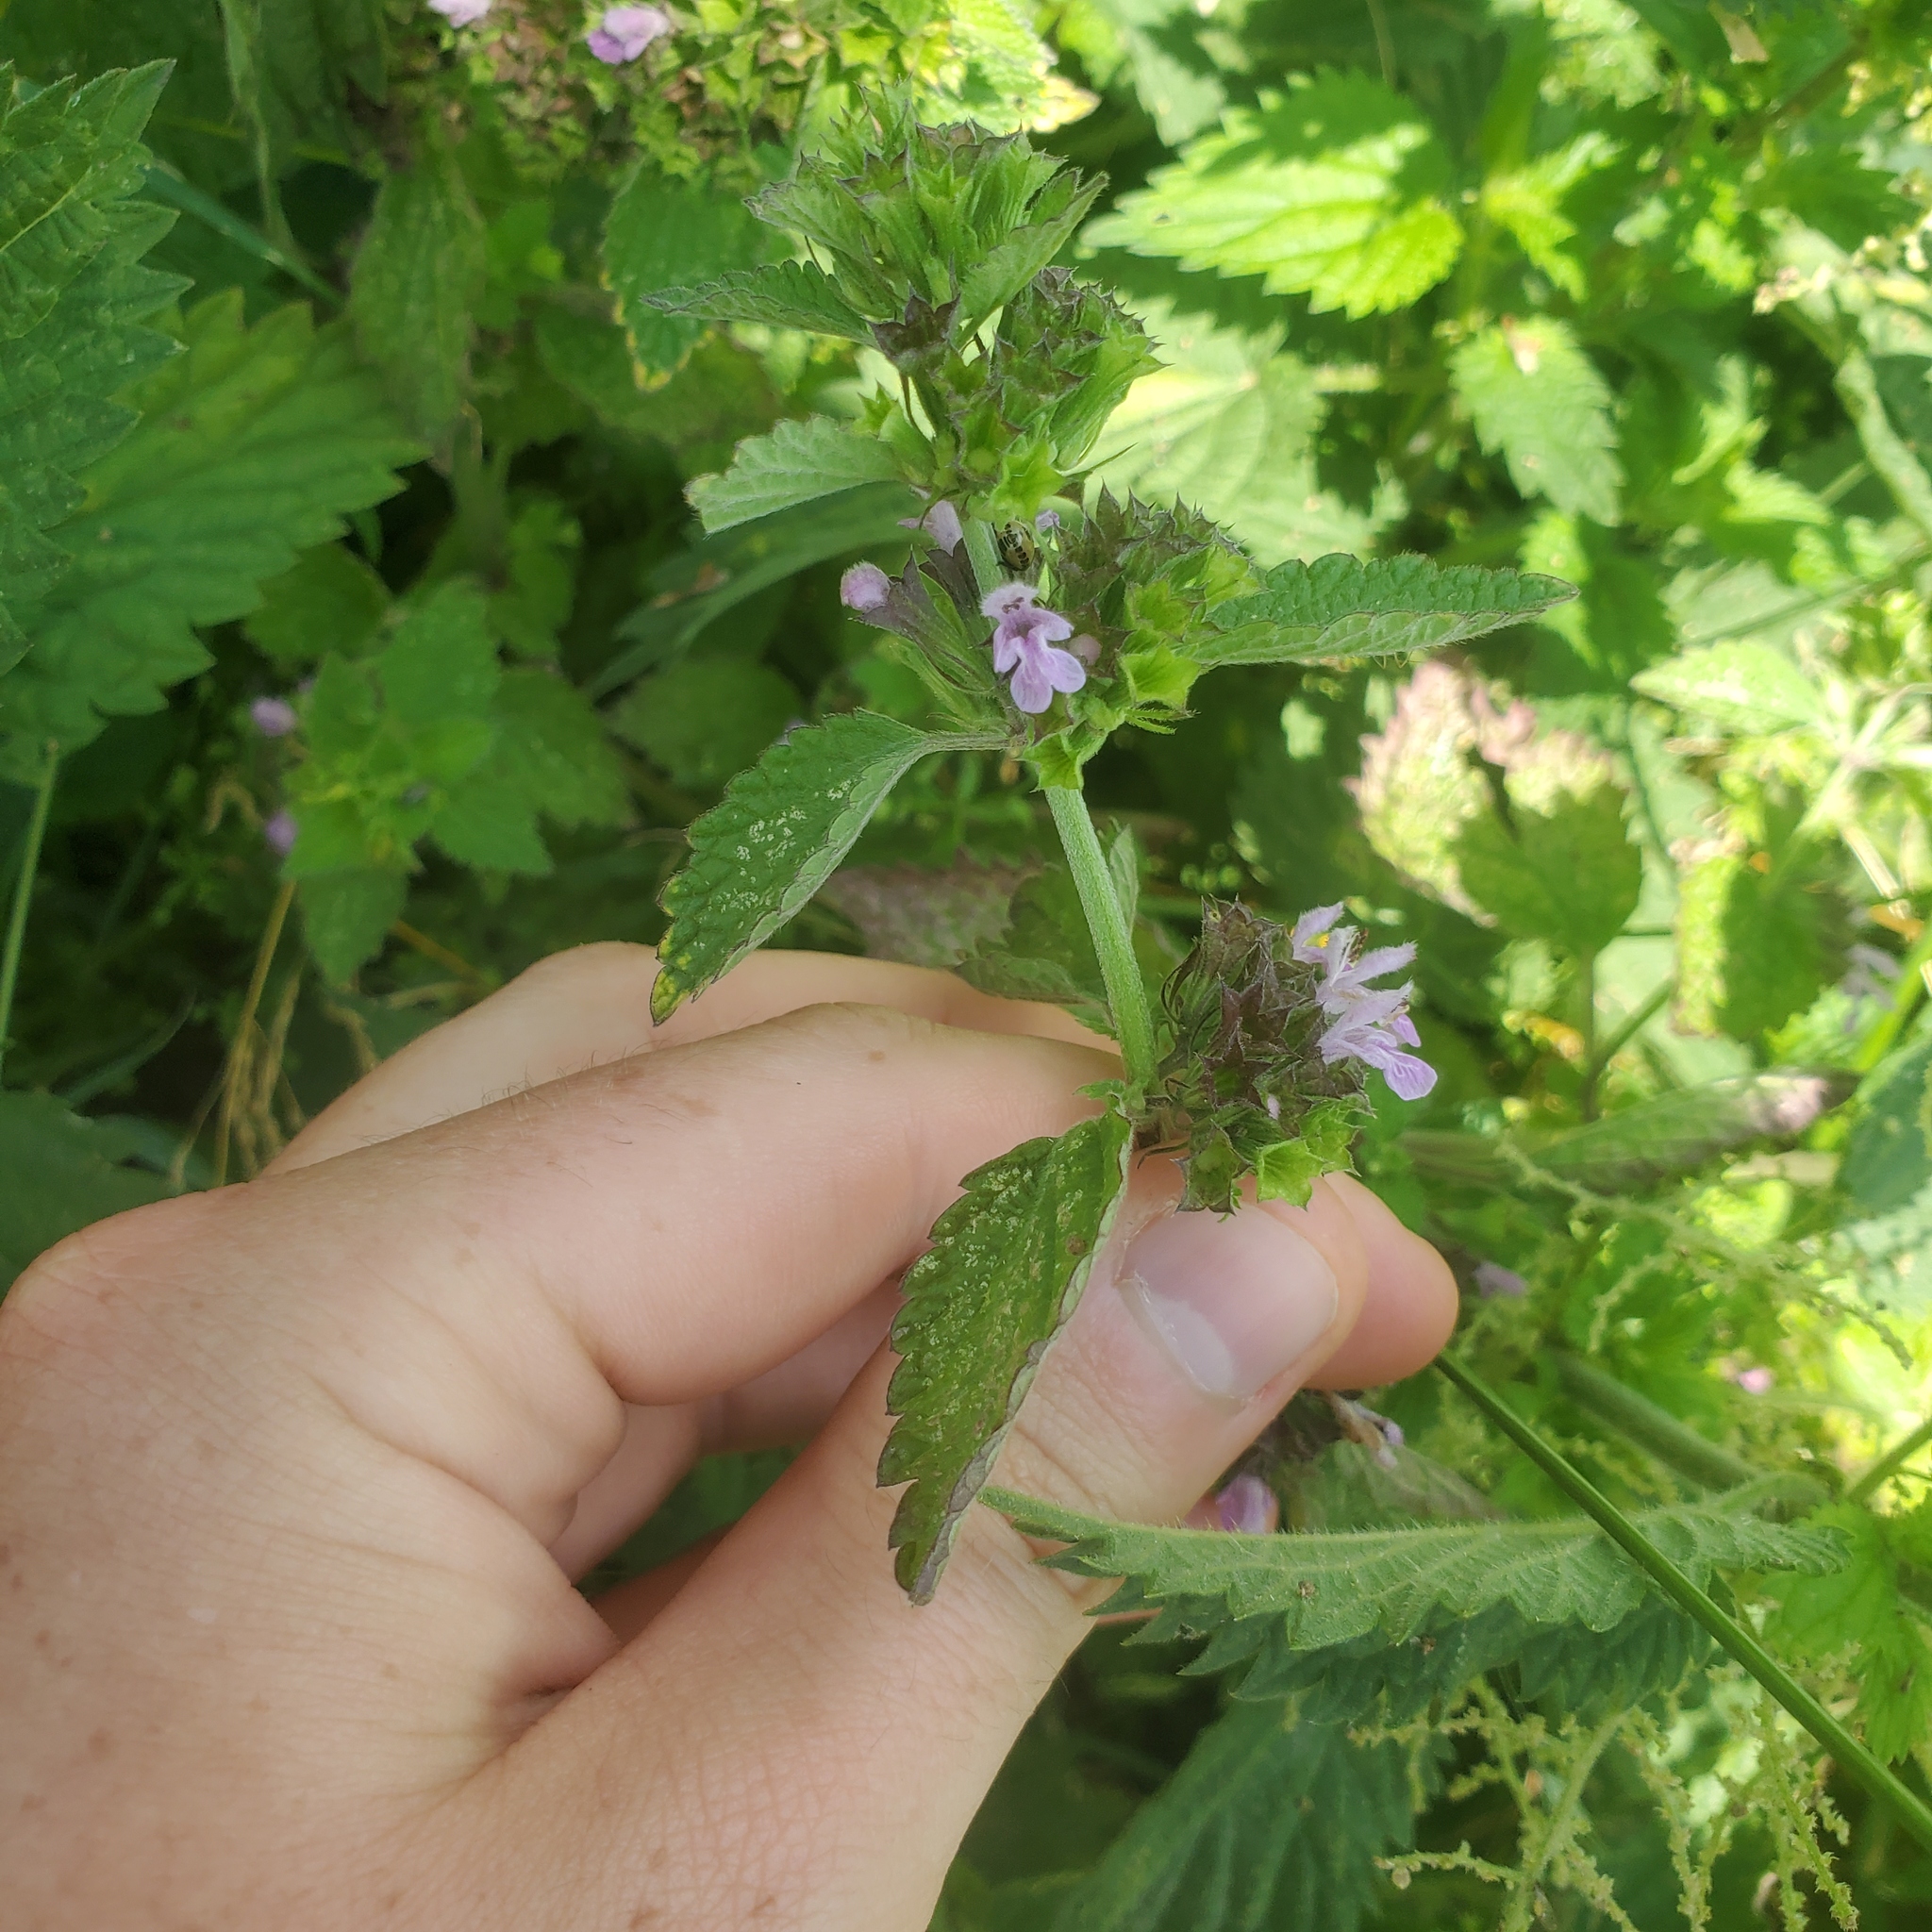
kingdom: Plantae
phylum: Tracheophyta
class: Magnoliopsida
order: Lamiales
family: Lamiaceae
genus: Ballota
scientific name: Ballota nigra
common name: Black horehound
